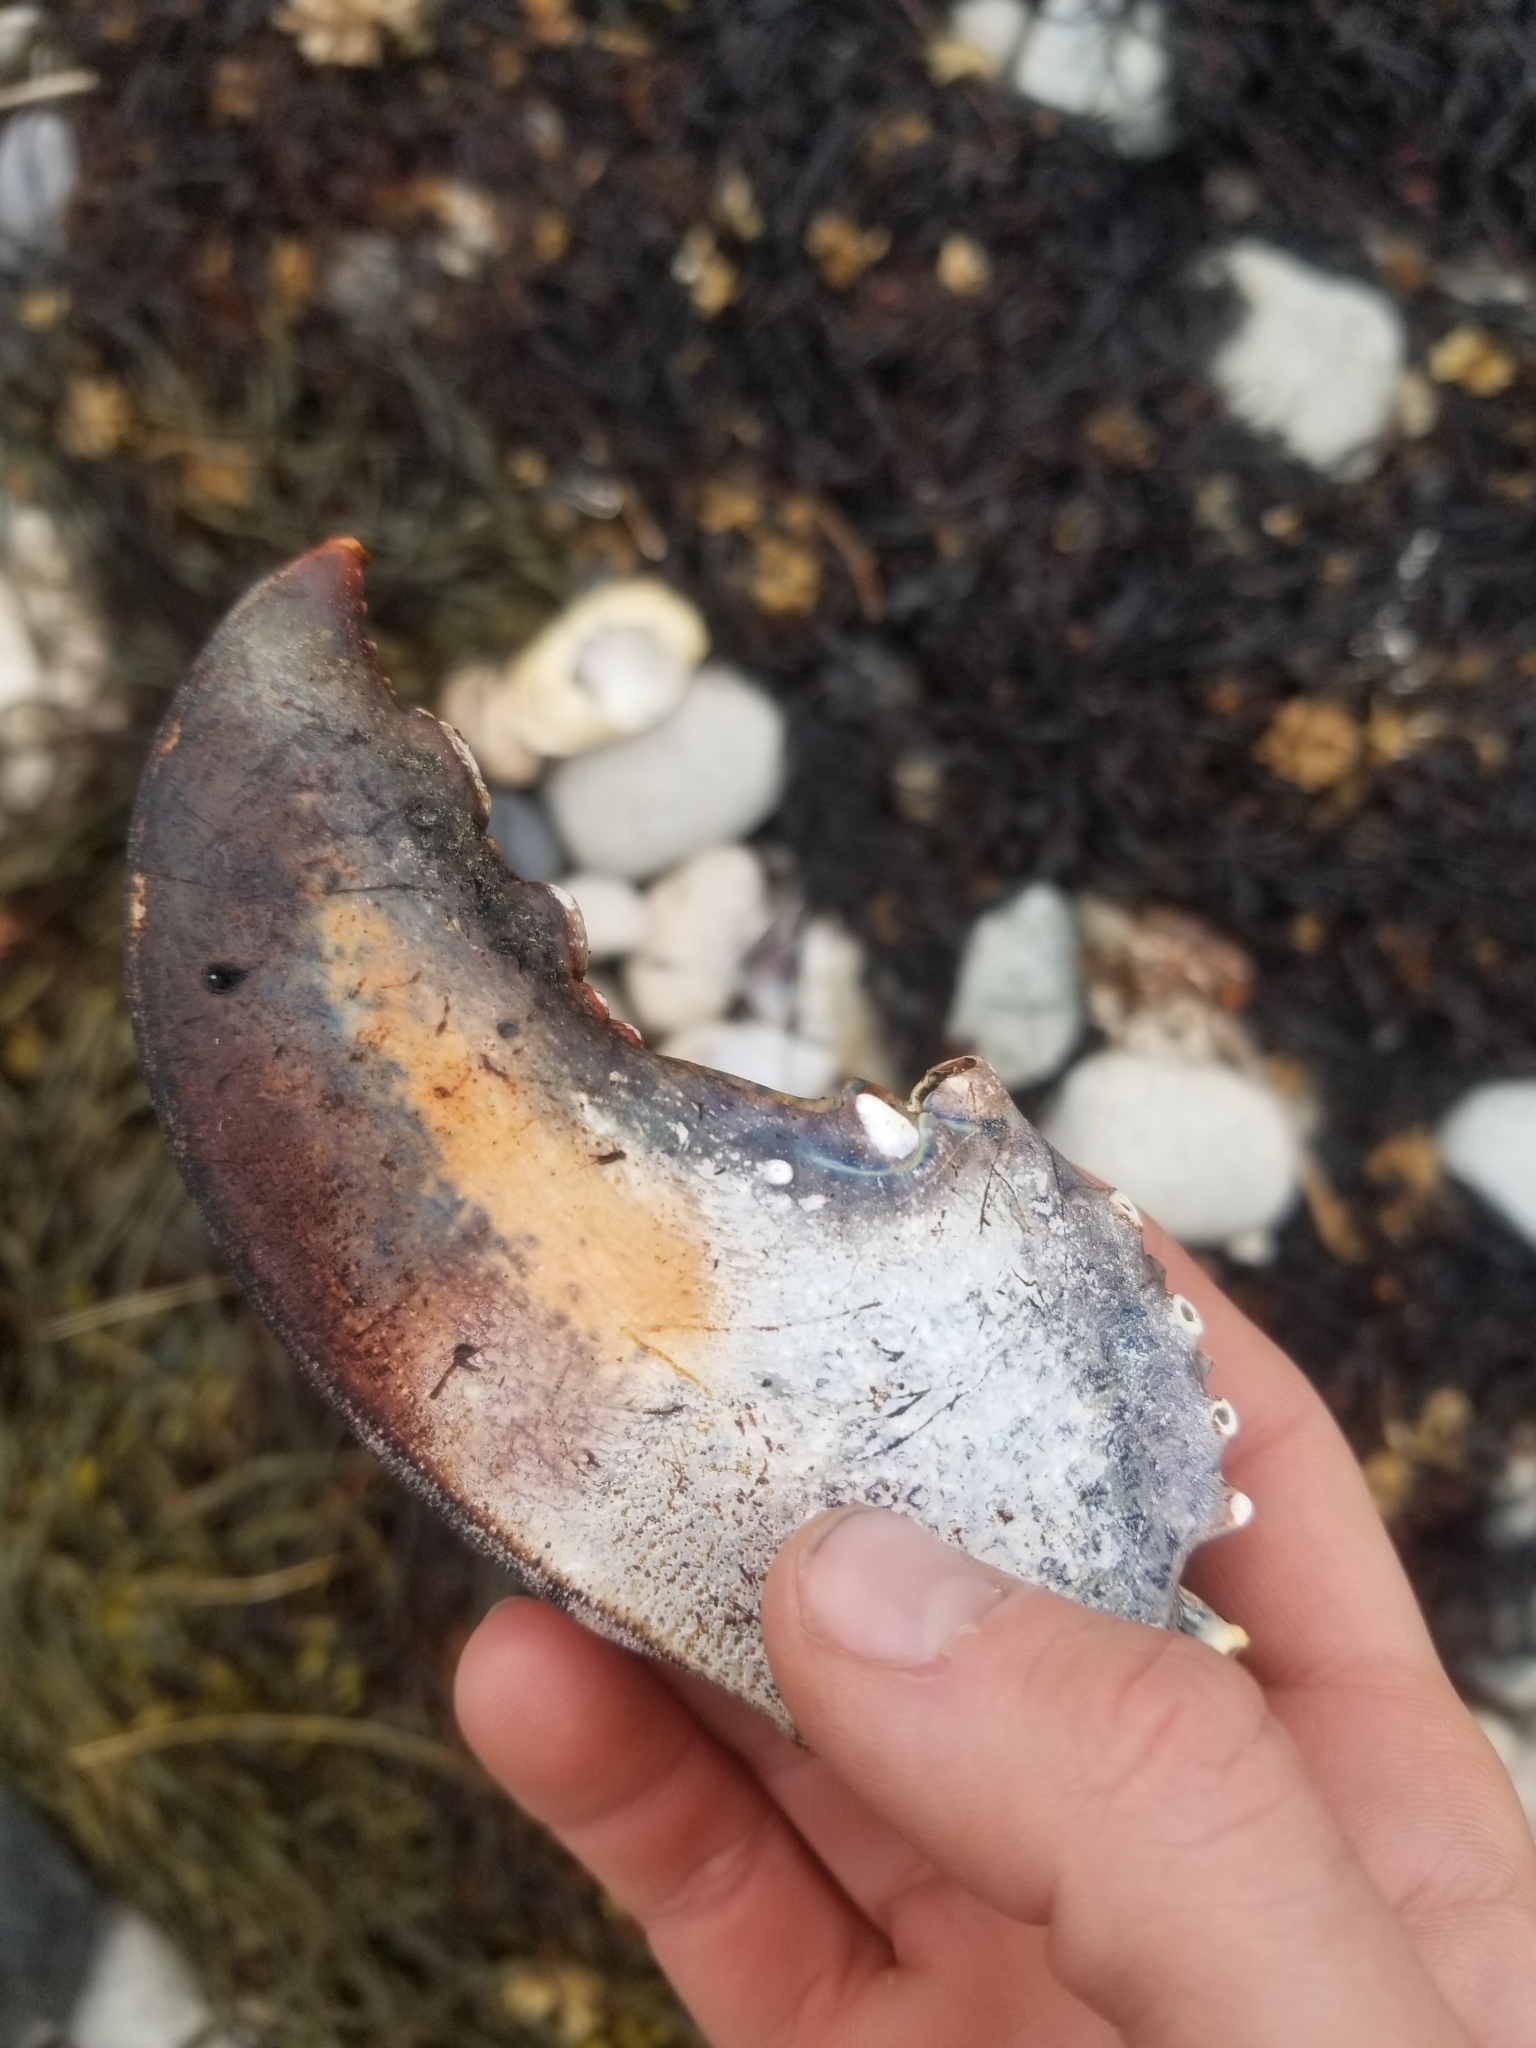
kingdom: Animalia
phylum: Arthropoda
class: Malacostraca
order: Decapoda
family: Nephropidae
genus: Homarus
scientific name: Homarus americanus
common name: American lobster
